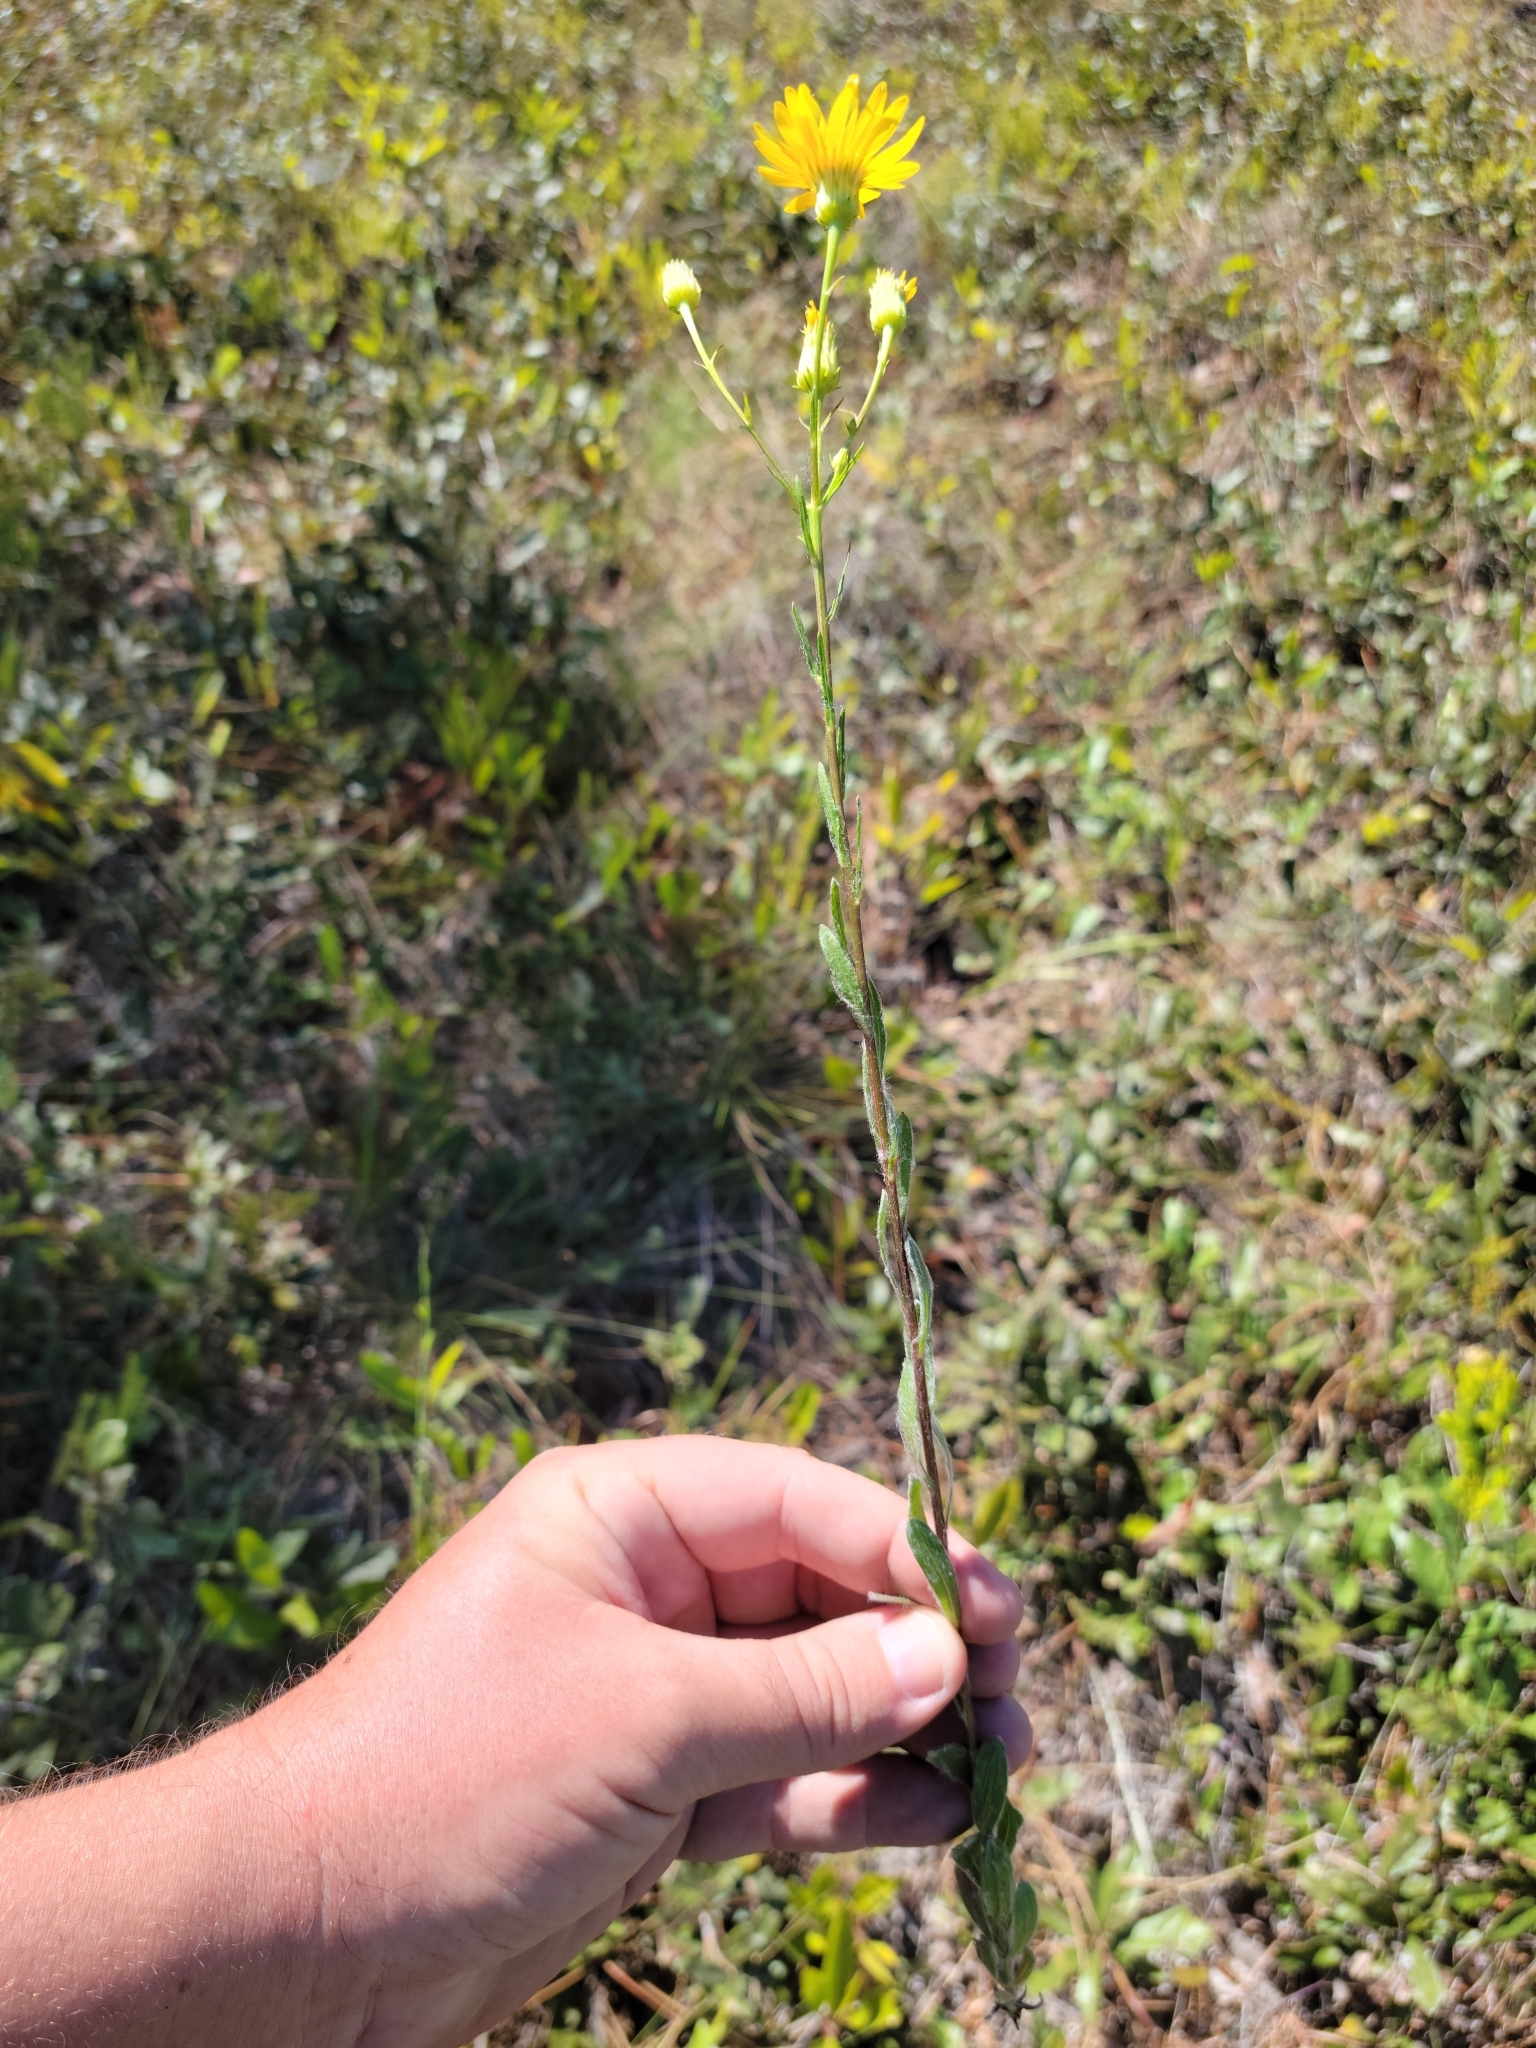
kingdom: Plantae
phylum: Tracheophyta
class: Magnoliopsida
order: Asterales
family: Asteraceae
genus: Chrysopsis
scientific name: Chrysopsis gossypina
